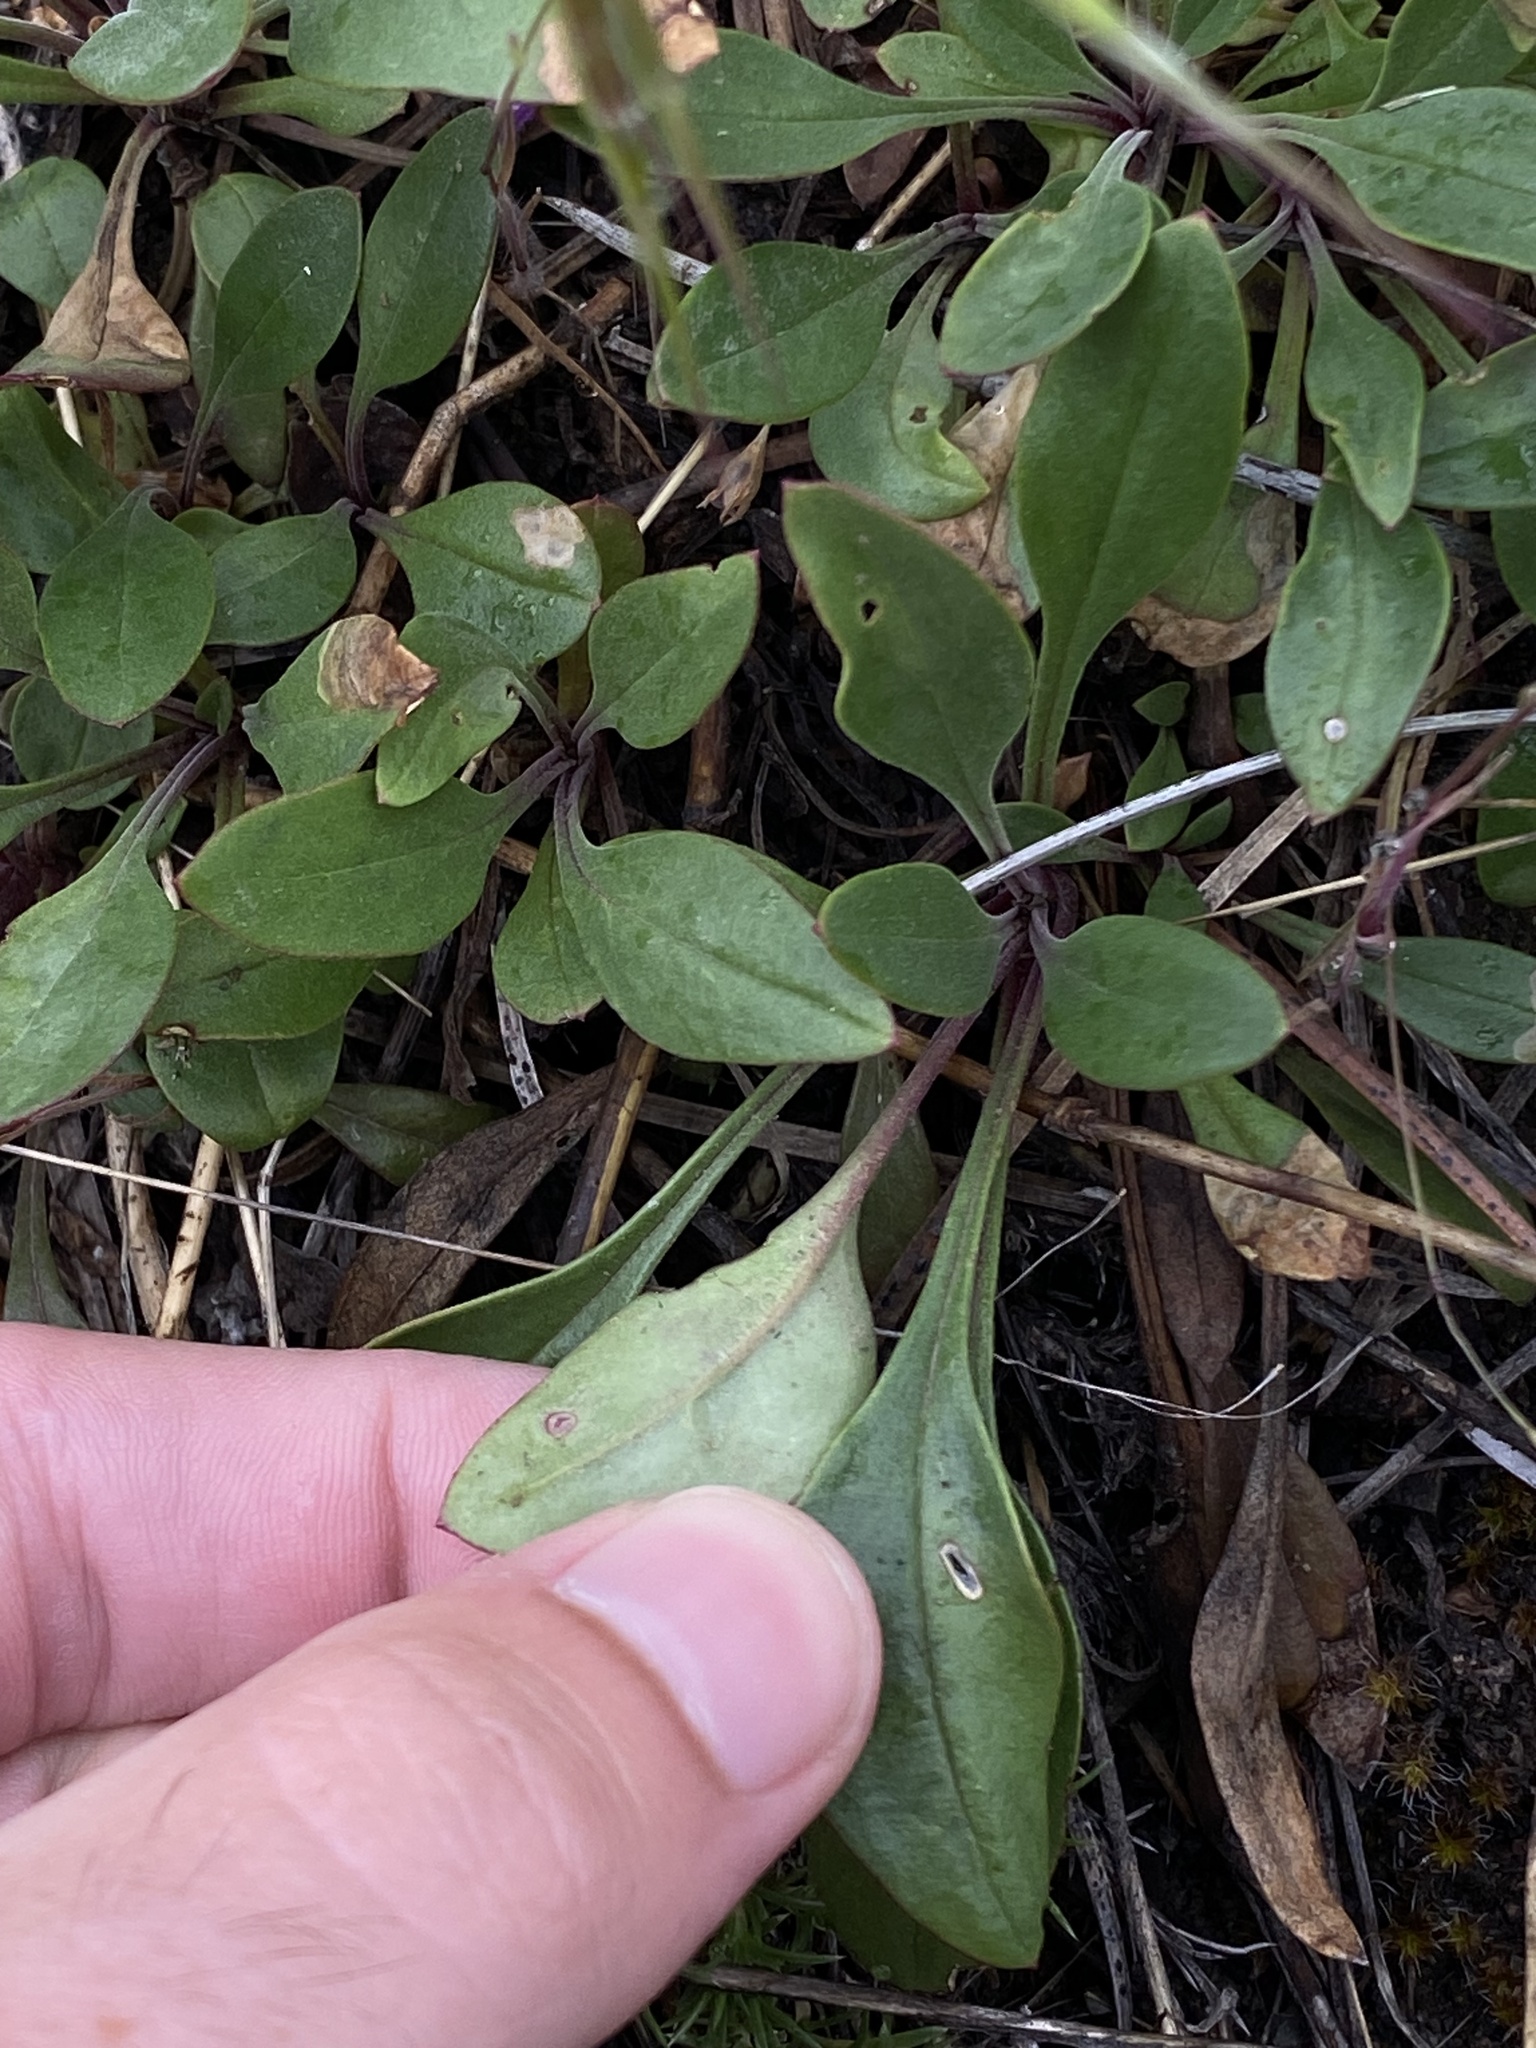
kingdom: Plantae
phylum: Tracheophyta
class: Magnoliopsida
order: Lamiales
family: Plantaginaceae
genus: Penstemon
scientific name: Penstemon humilis
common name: Low penstemon
